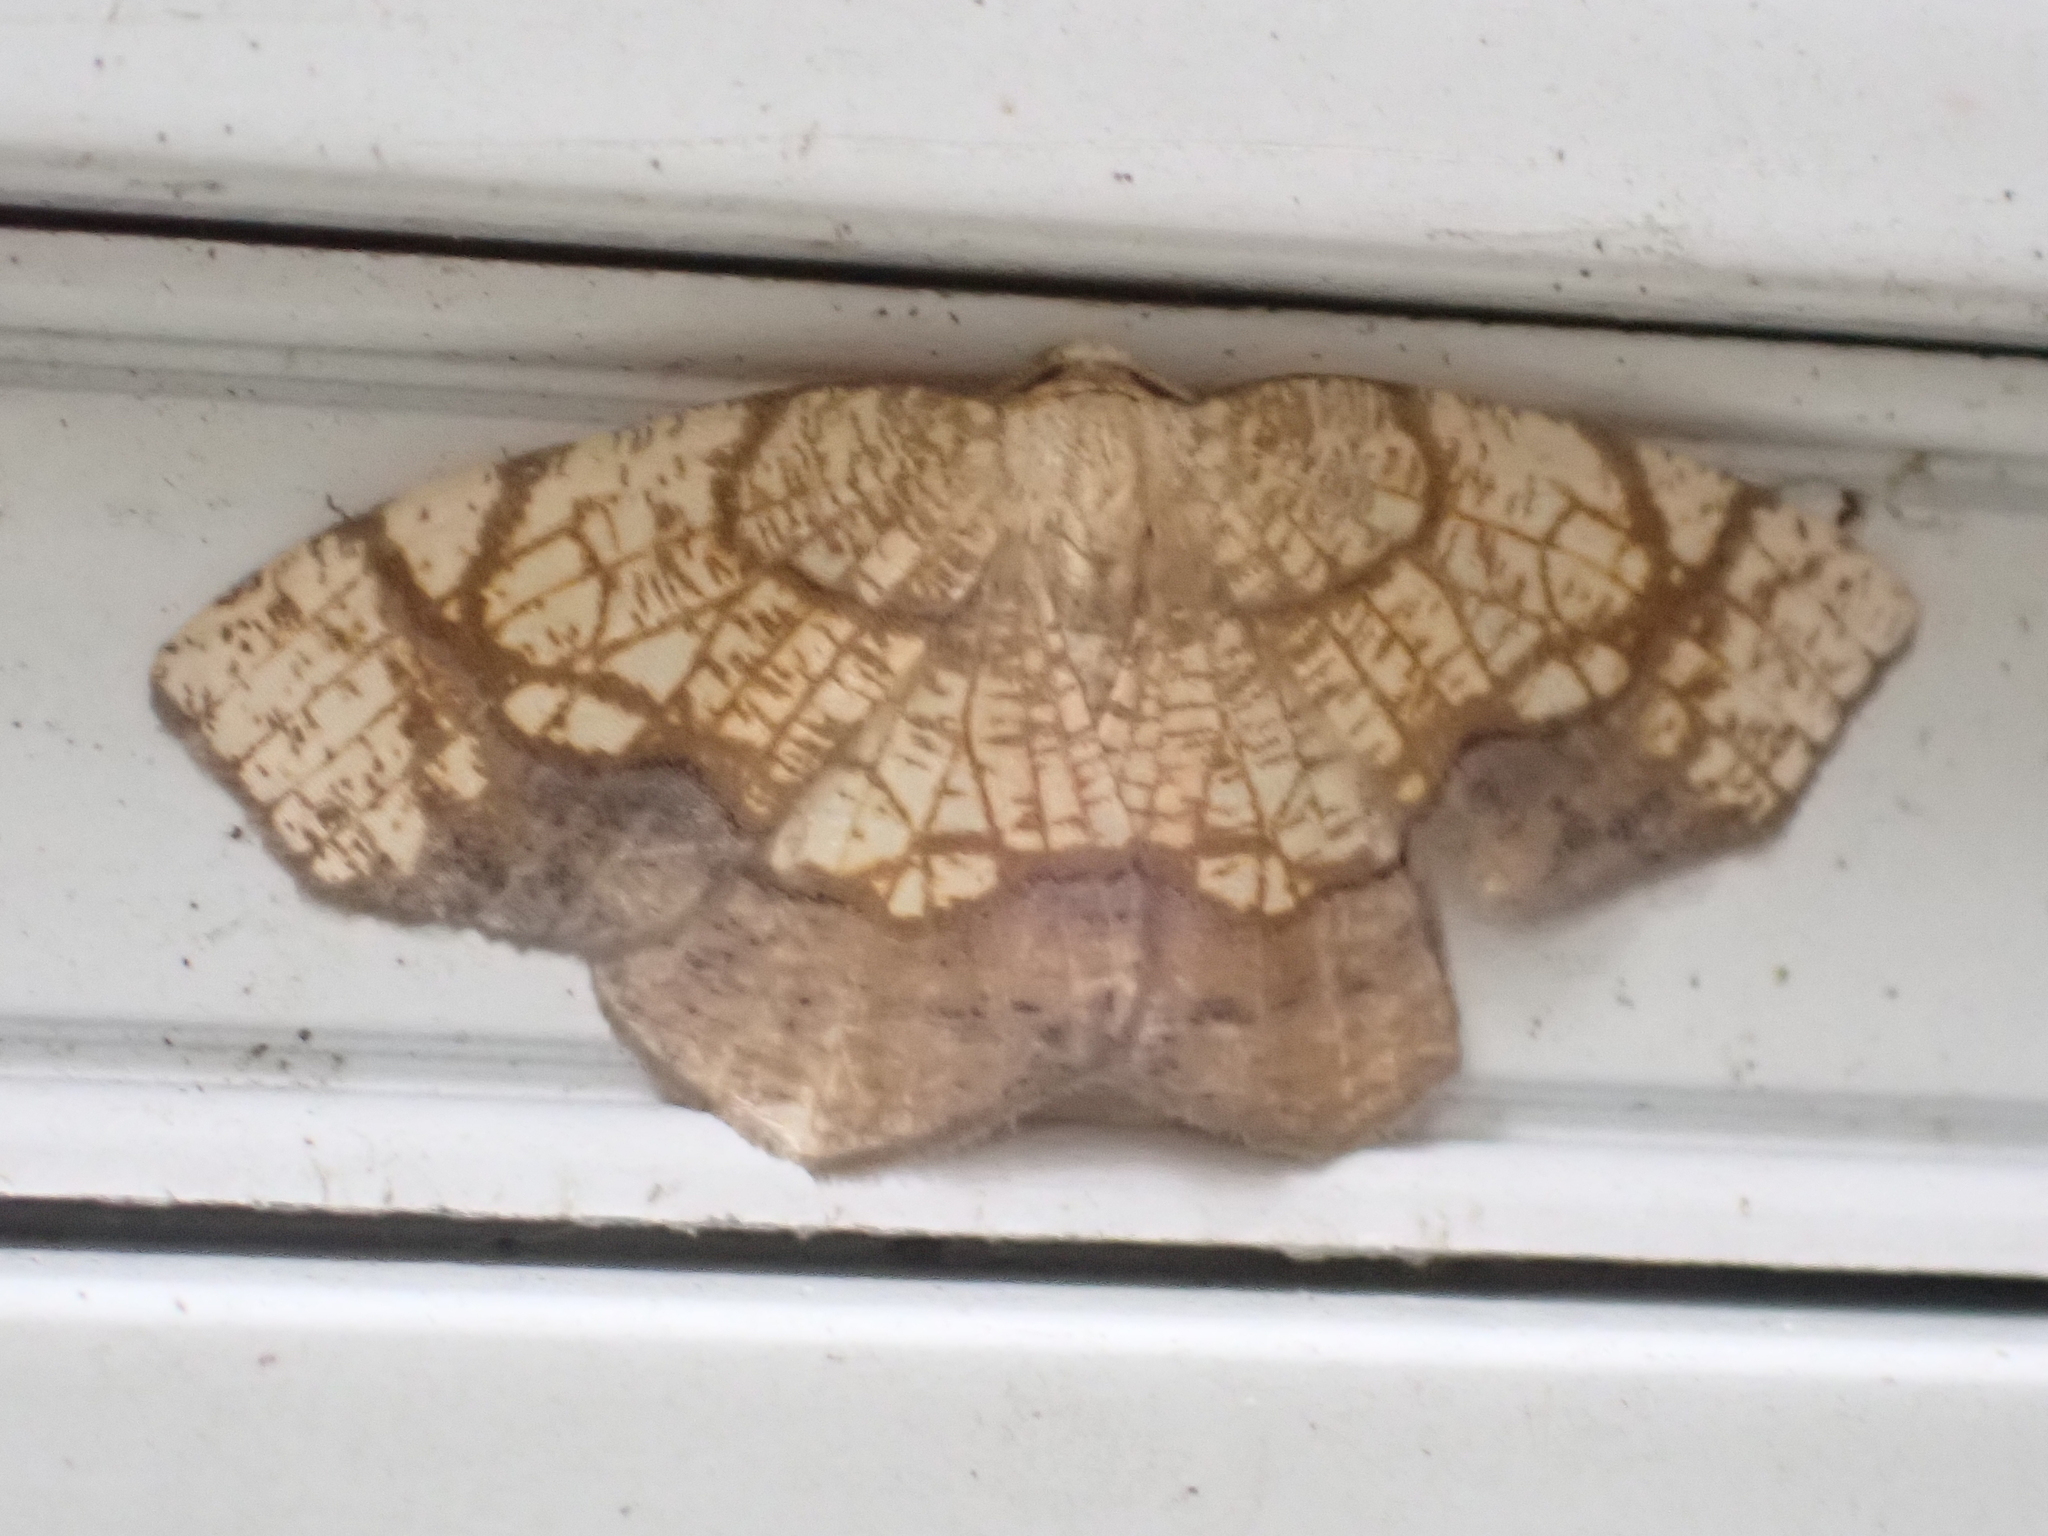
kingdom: Animalia
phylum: Arthropoda
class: Insecta
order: Lepidoptera
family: Geometridae
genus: Nematocampa
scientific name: Nematocampa resistaria
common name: Horned spanworm moth
